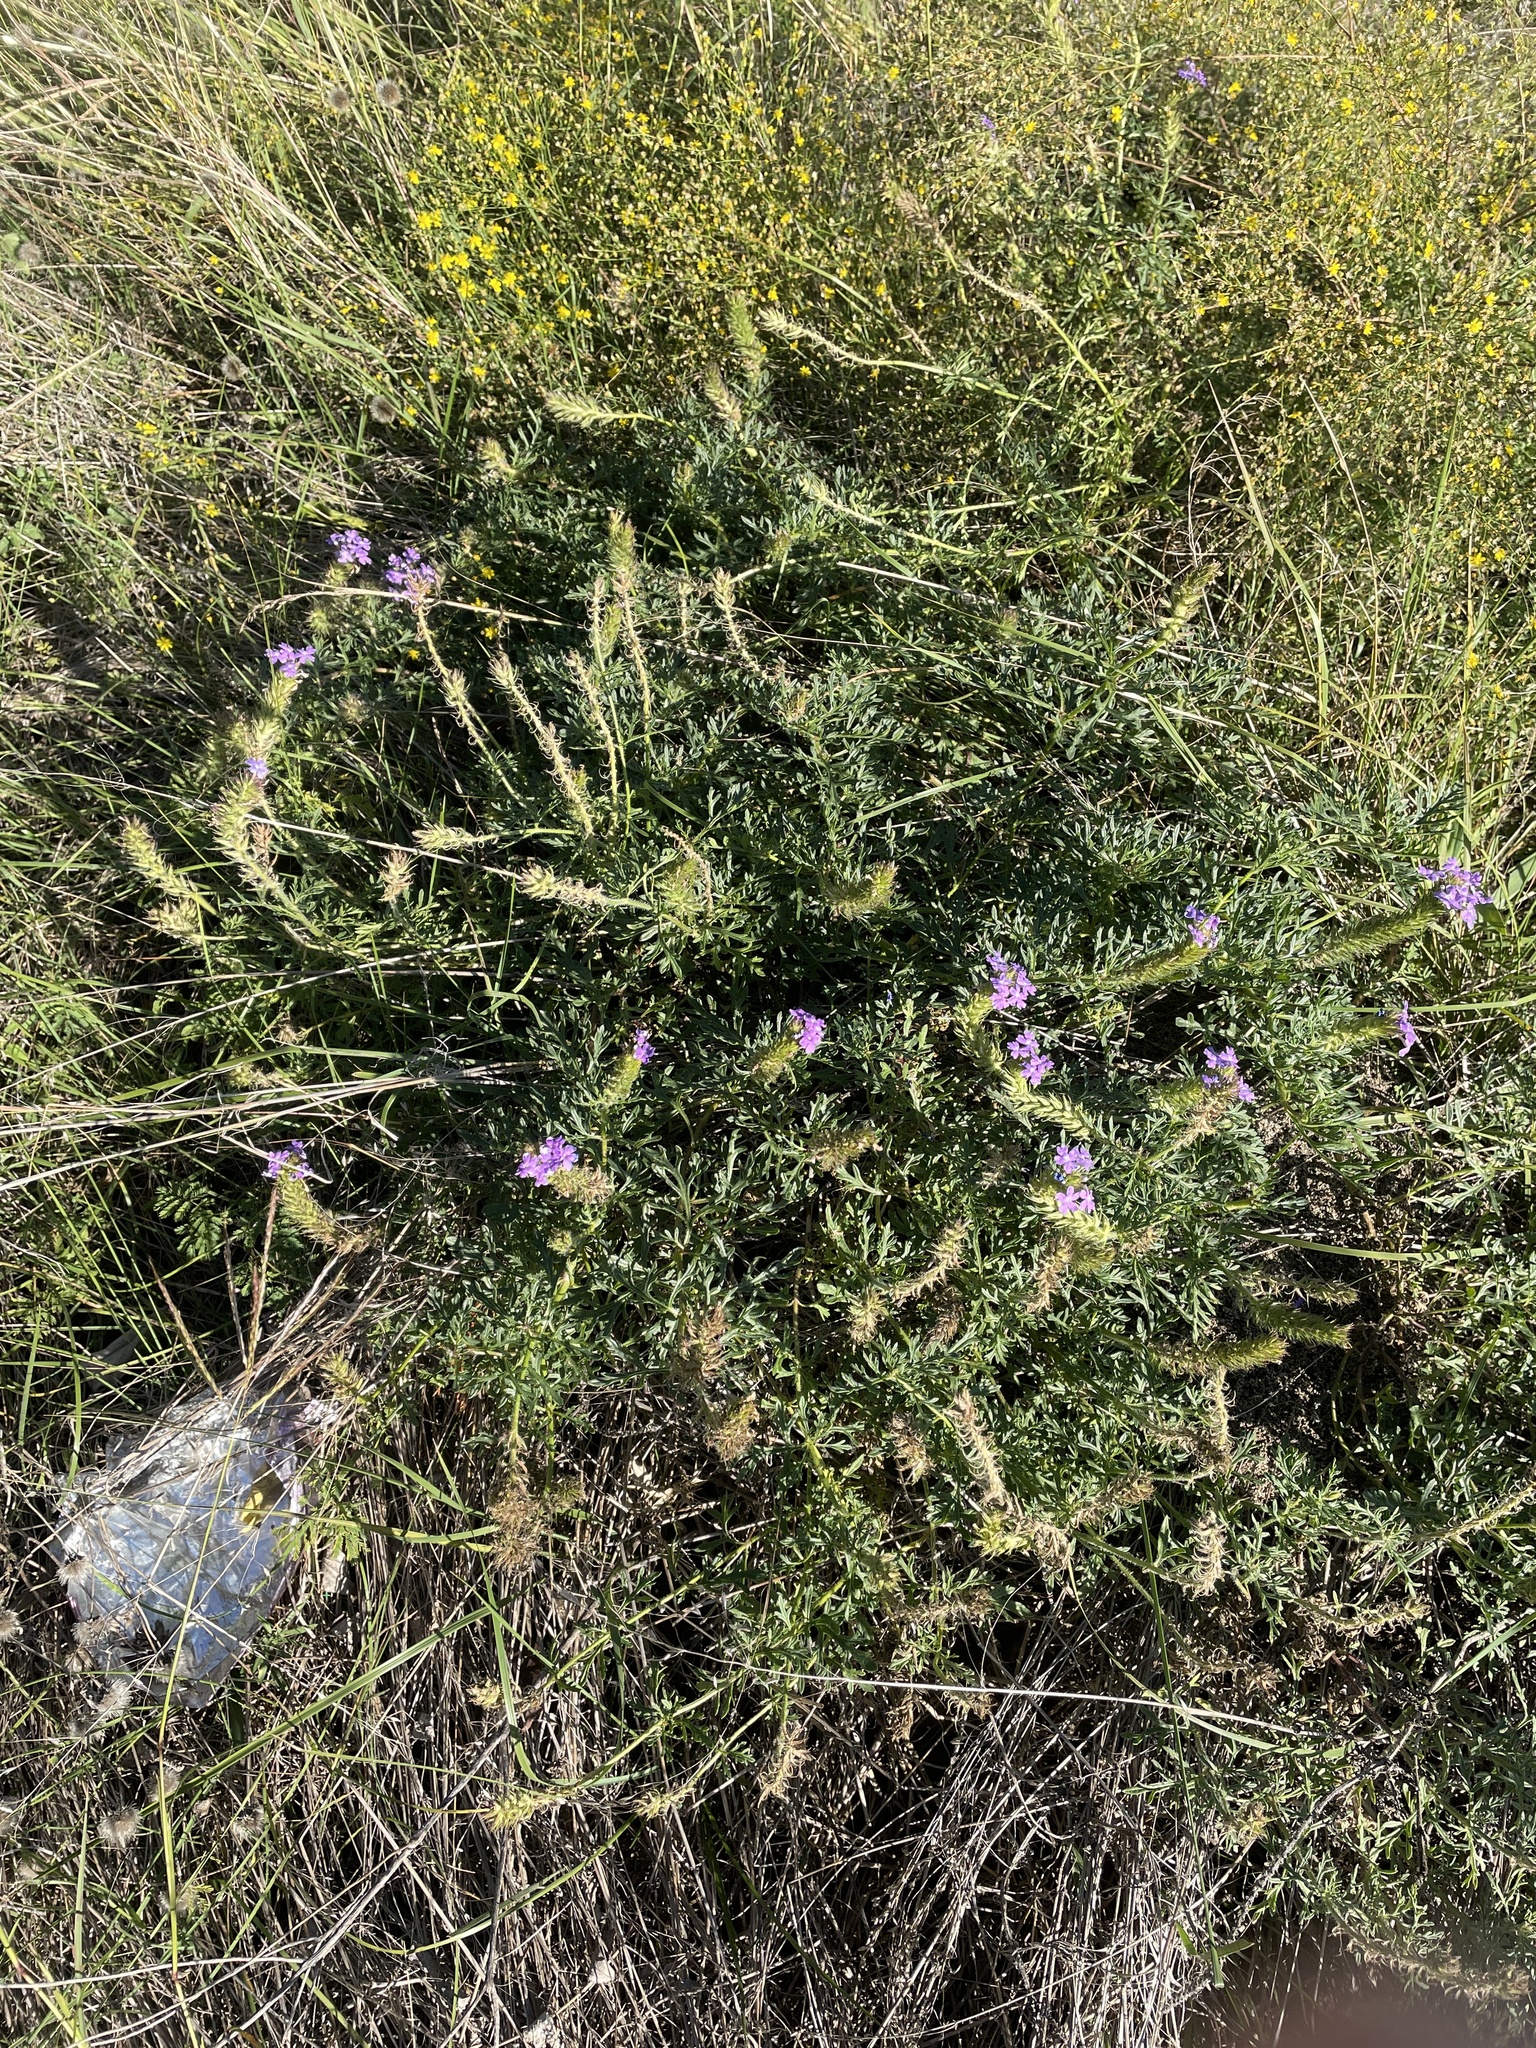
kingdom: Plantae
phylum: Tracheophyta
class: Magnoliopsida
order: Lamiales
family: Verbenaceae
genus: Verbena
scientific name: Verbena bipinnatifida
